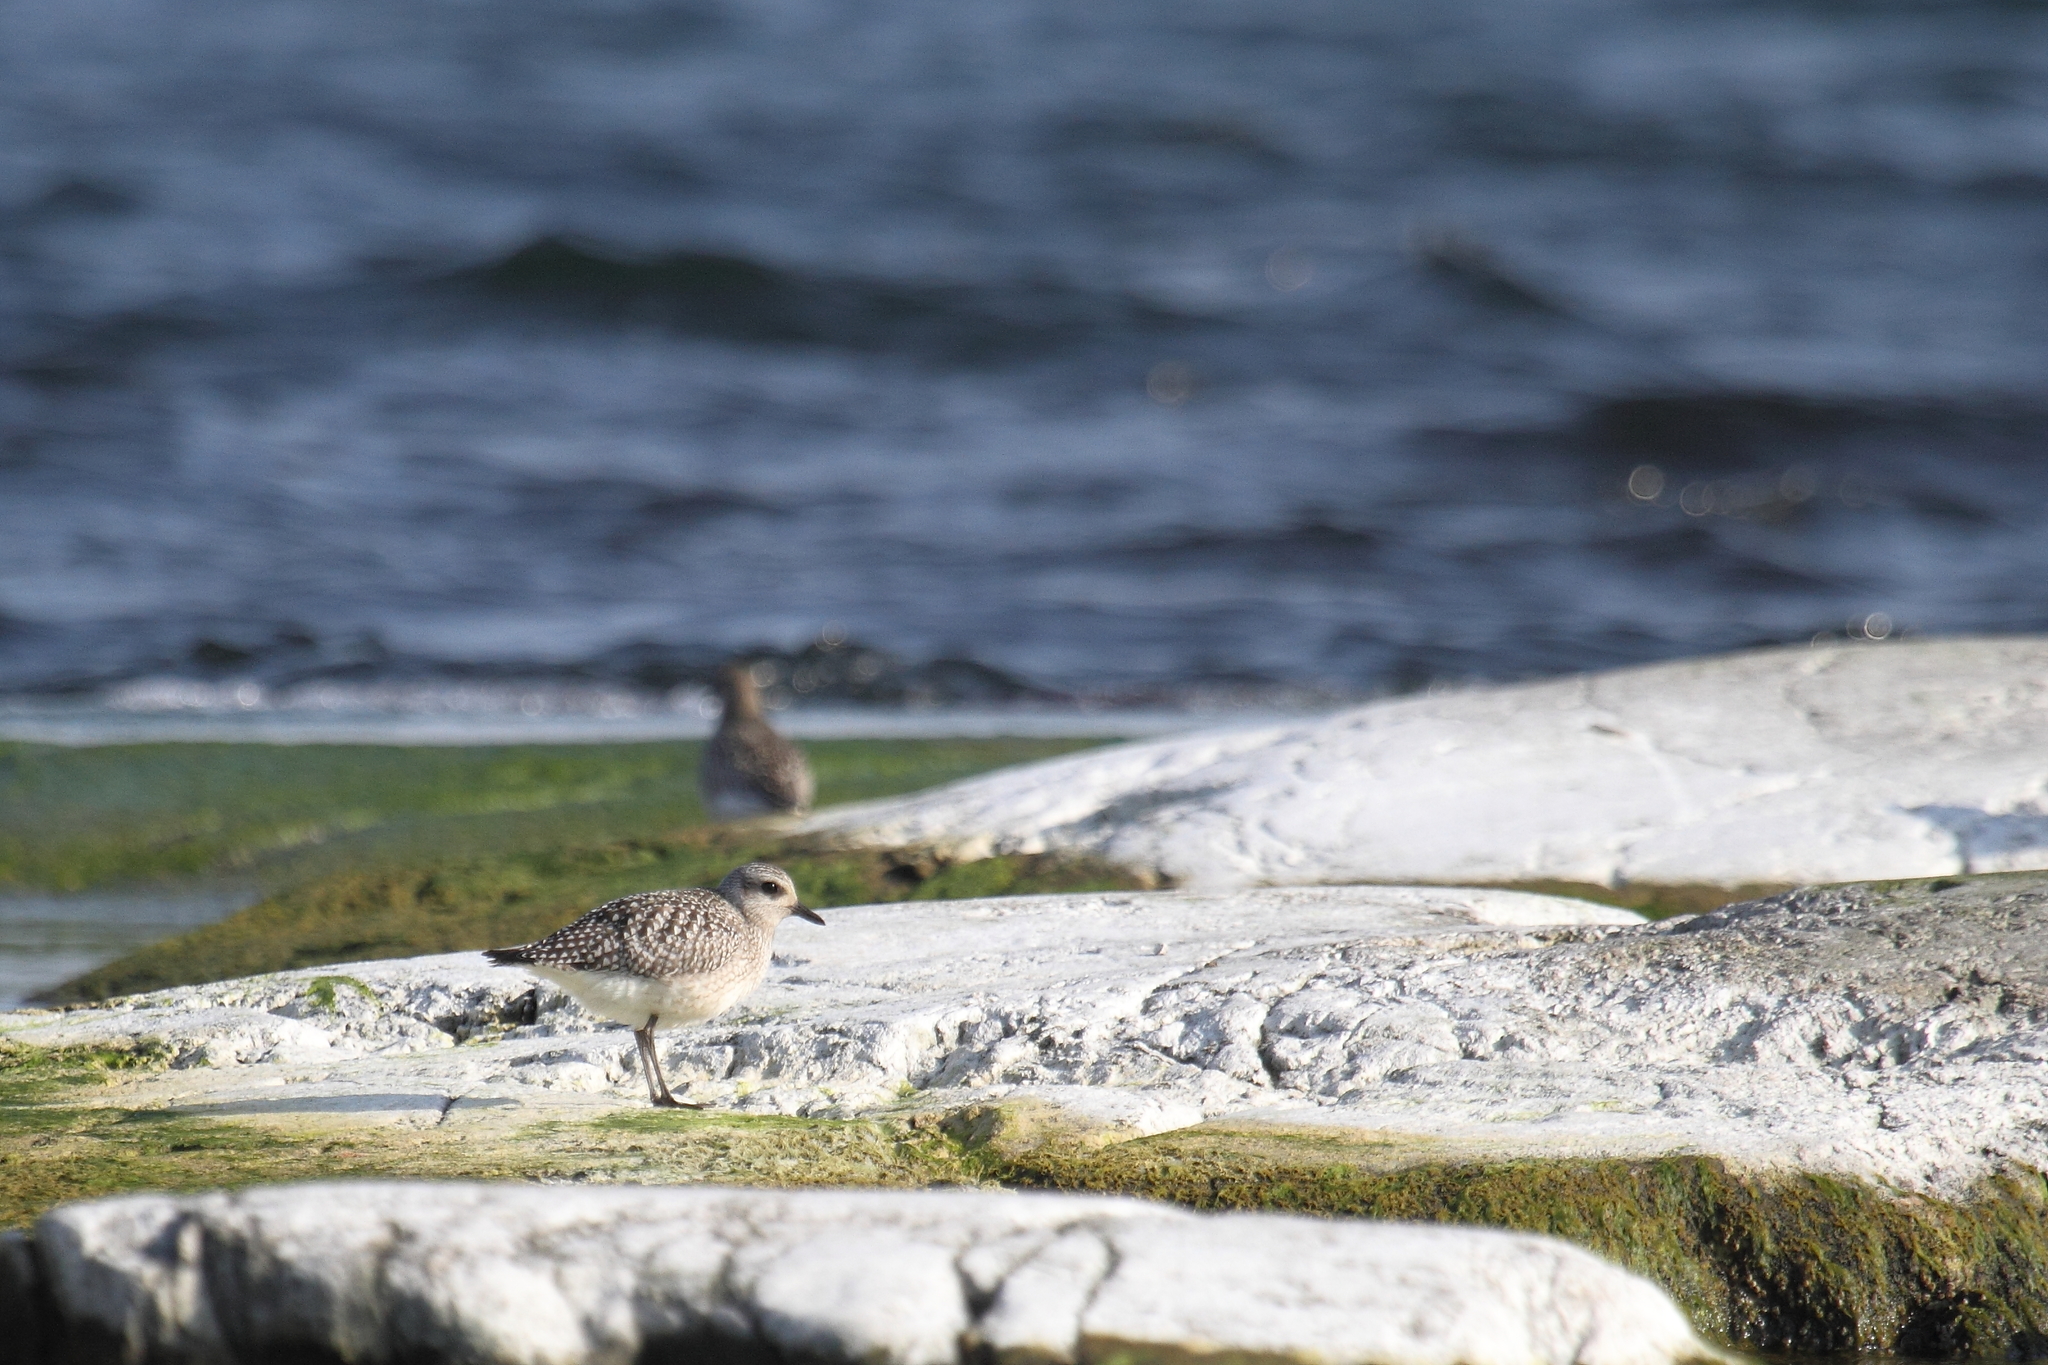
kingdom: Animalia
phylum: Chordata
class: Aves
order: Charadriiformes
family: Charadriidae
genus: Pluvialis
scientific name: Pluvialis squatarola
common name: Grey plover
